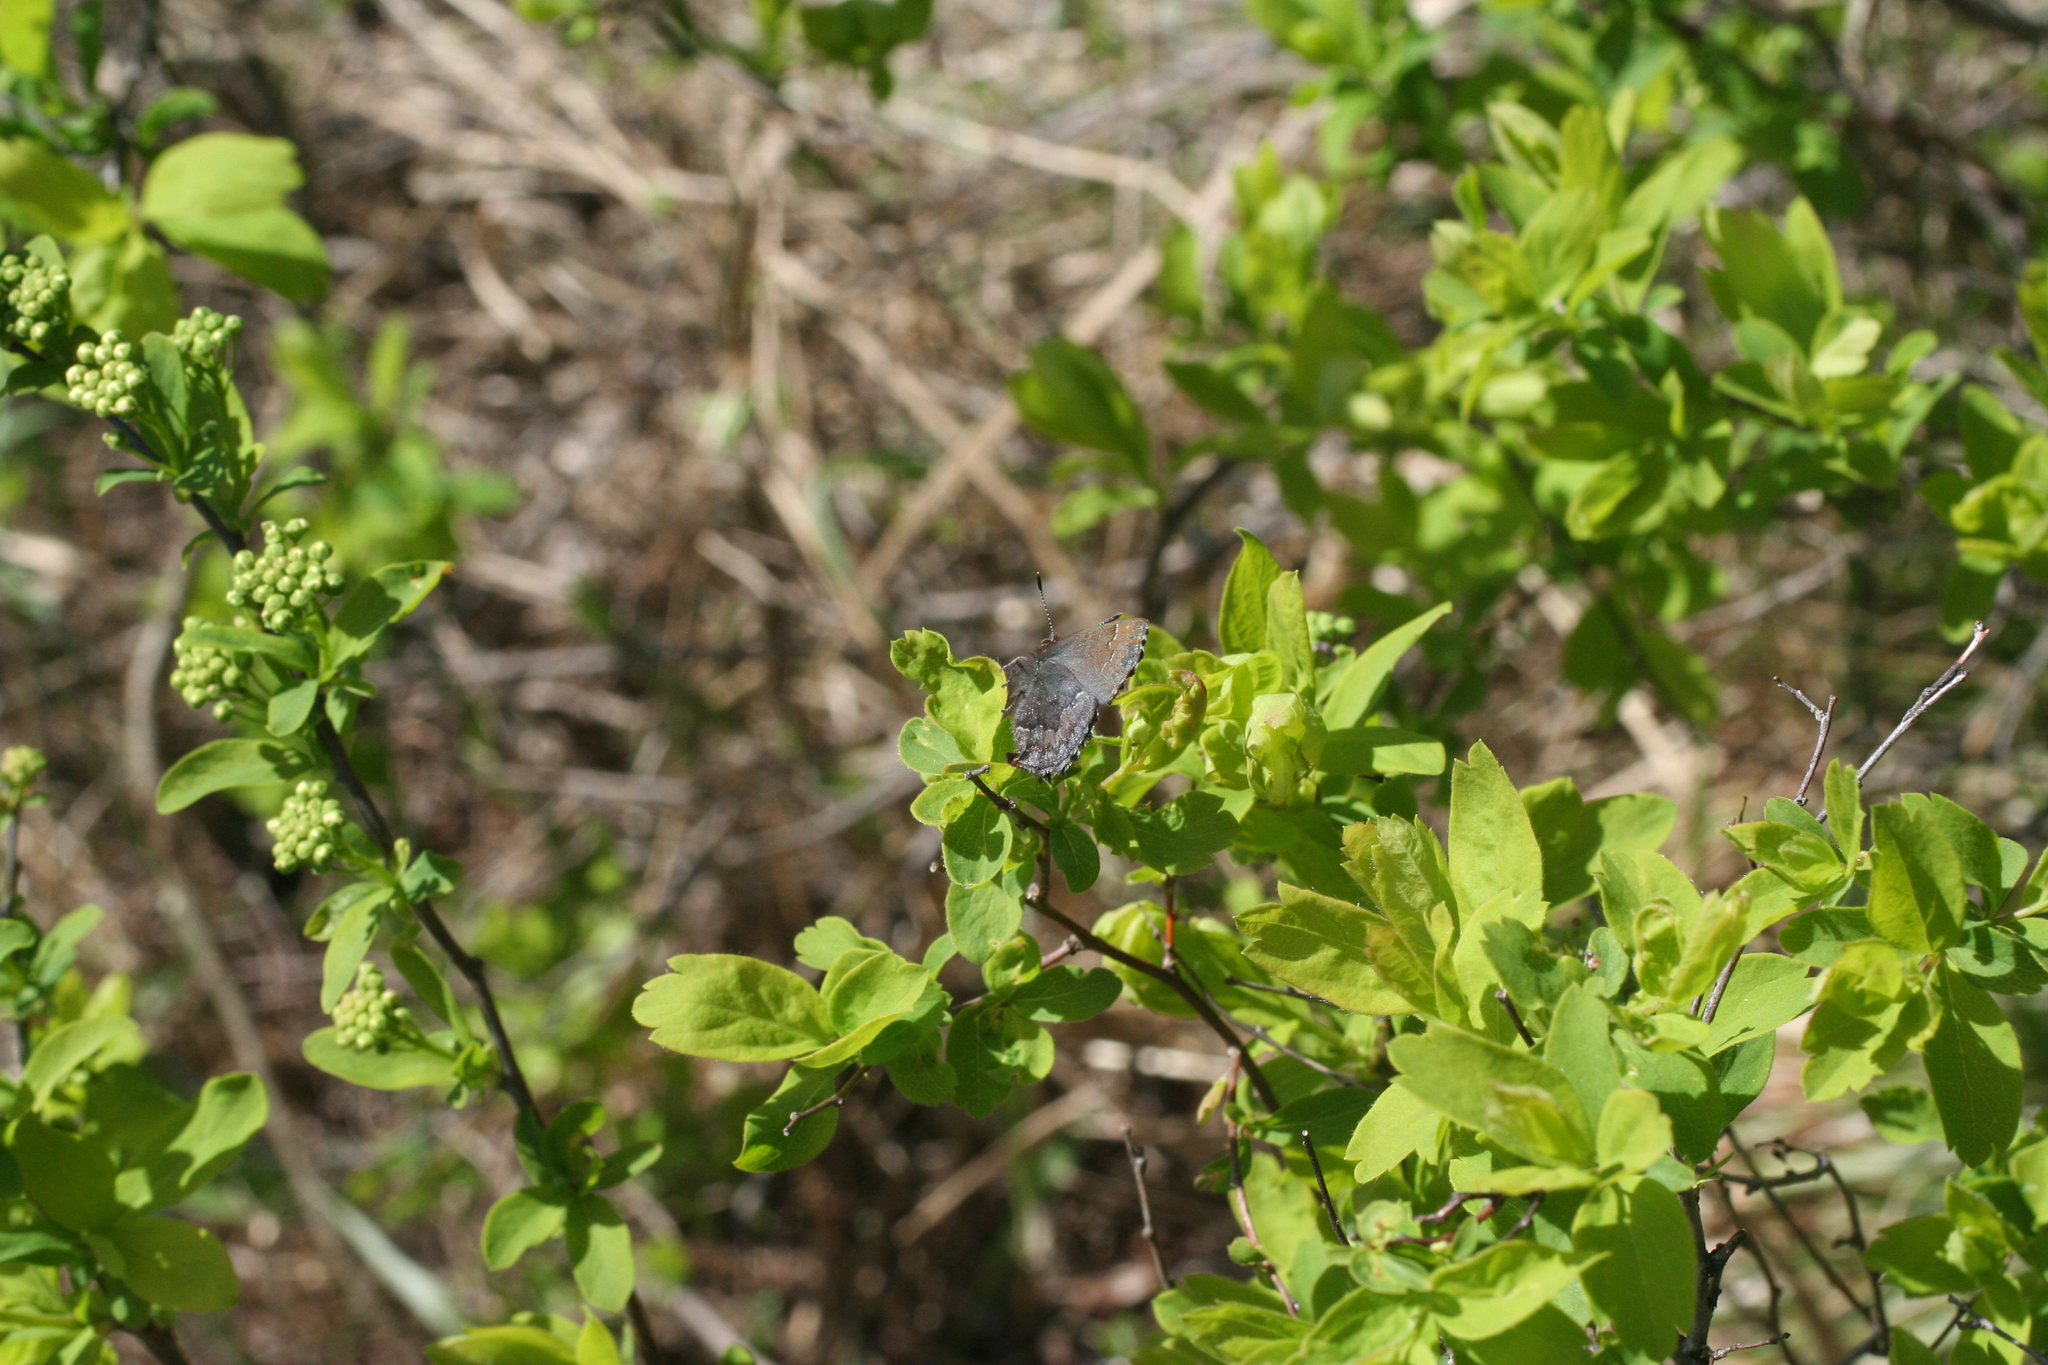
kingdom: Animalia
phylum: Arthropoda
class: Insecta
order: Lepidoptera
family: Lycaenidae
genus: Ginzia
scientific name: Ginzia Ahlbergia frivaldszkyi
